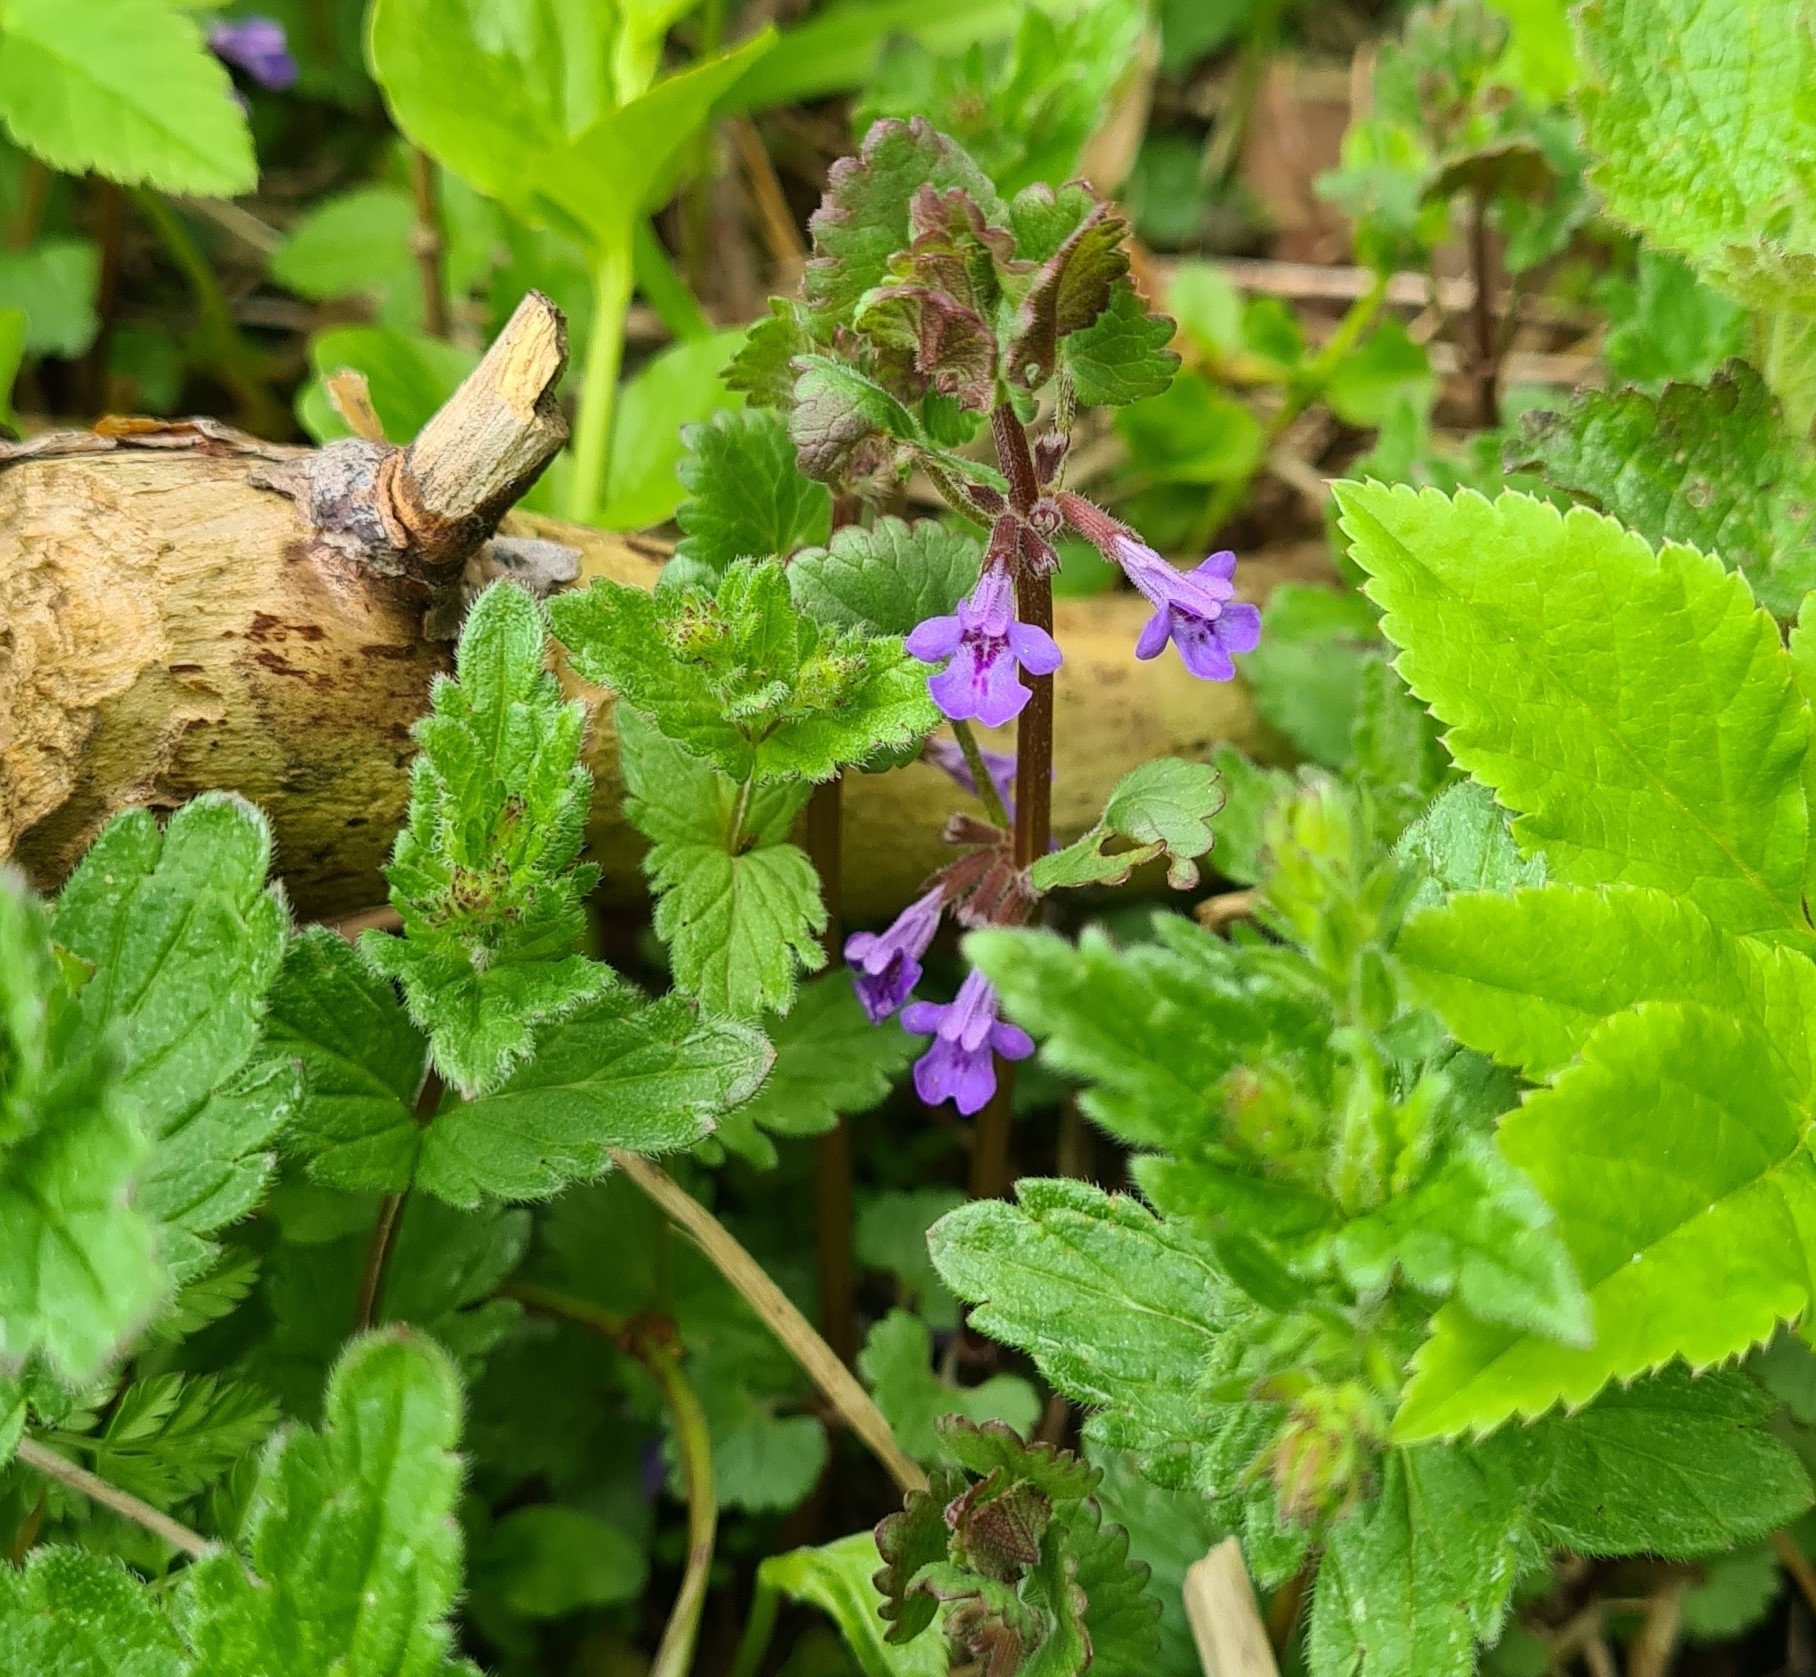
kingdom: Plantae
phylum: Tracheophyta
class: Magnoliopsida
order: Lamiales
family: Lamiaceae
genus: Glechoma
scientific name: Glechoma hederacea
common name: Ground ivy
